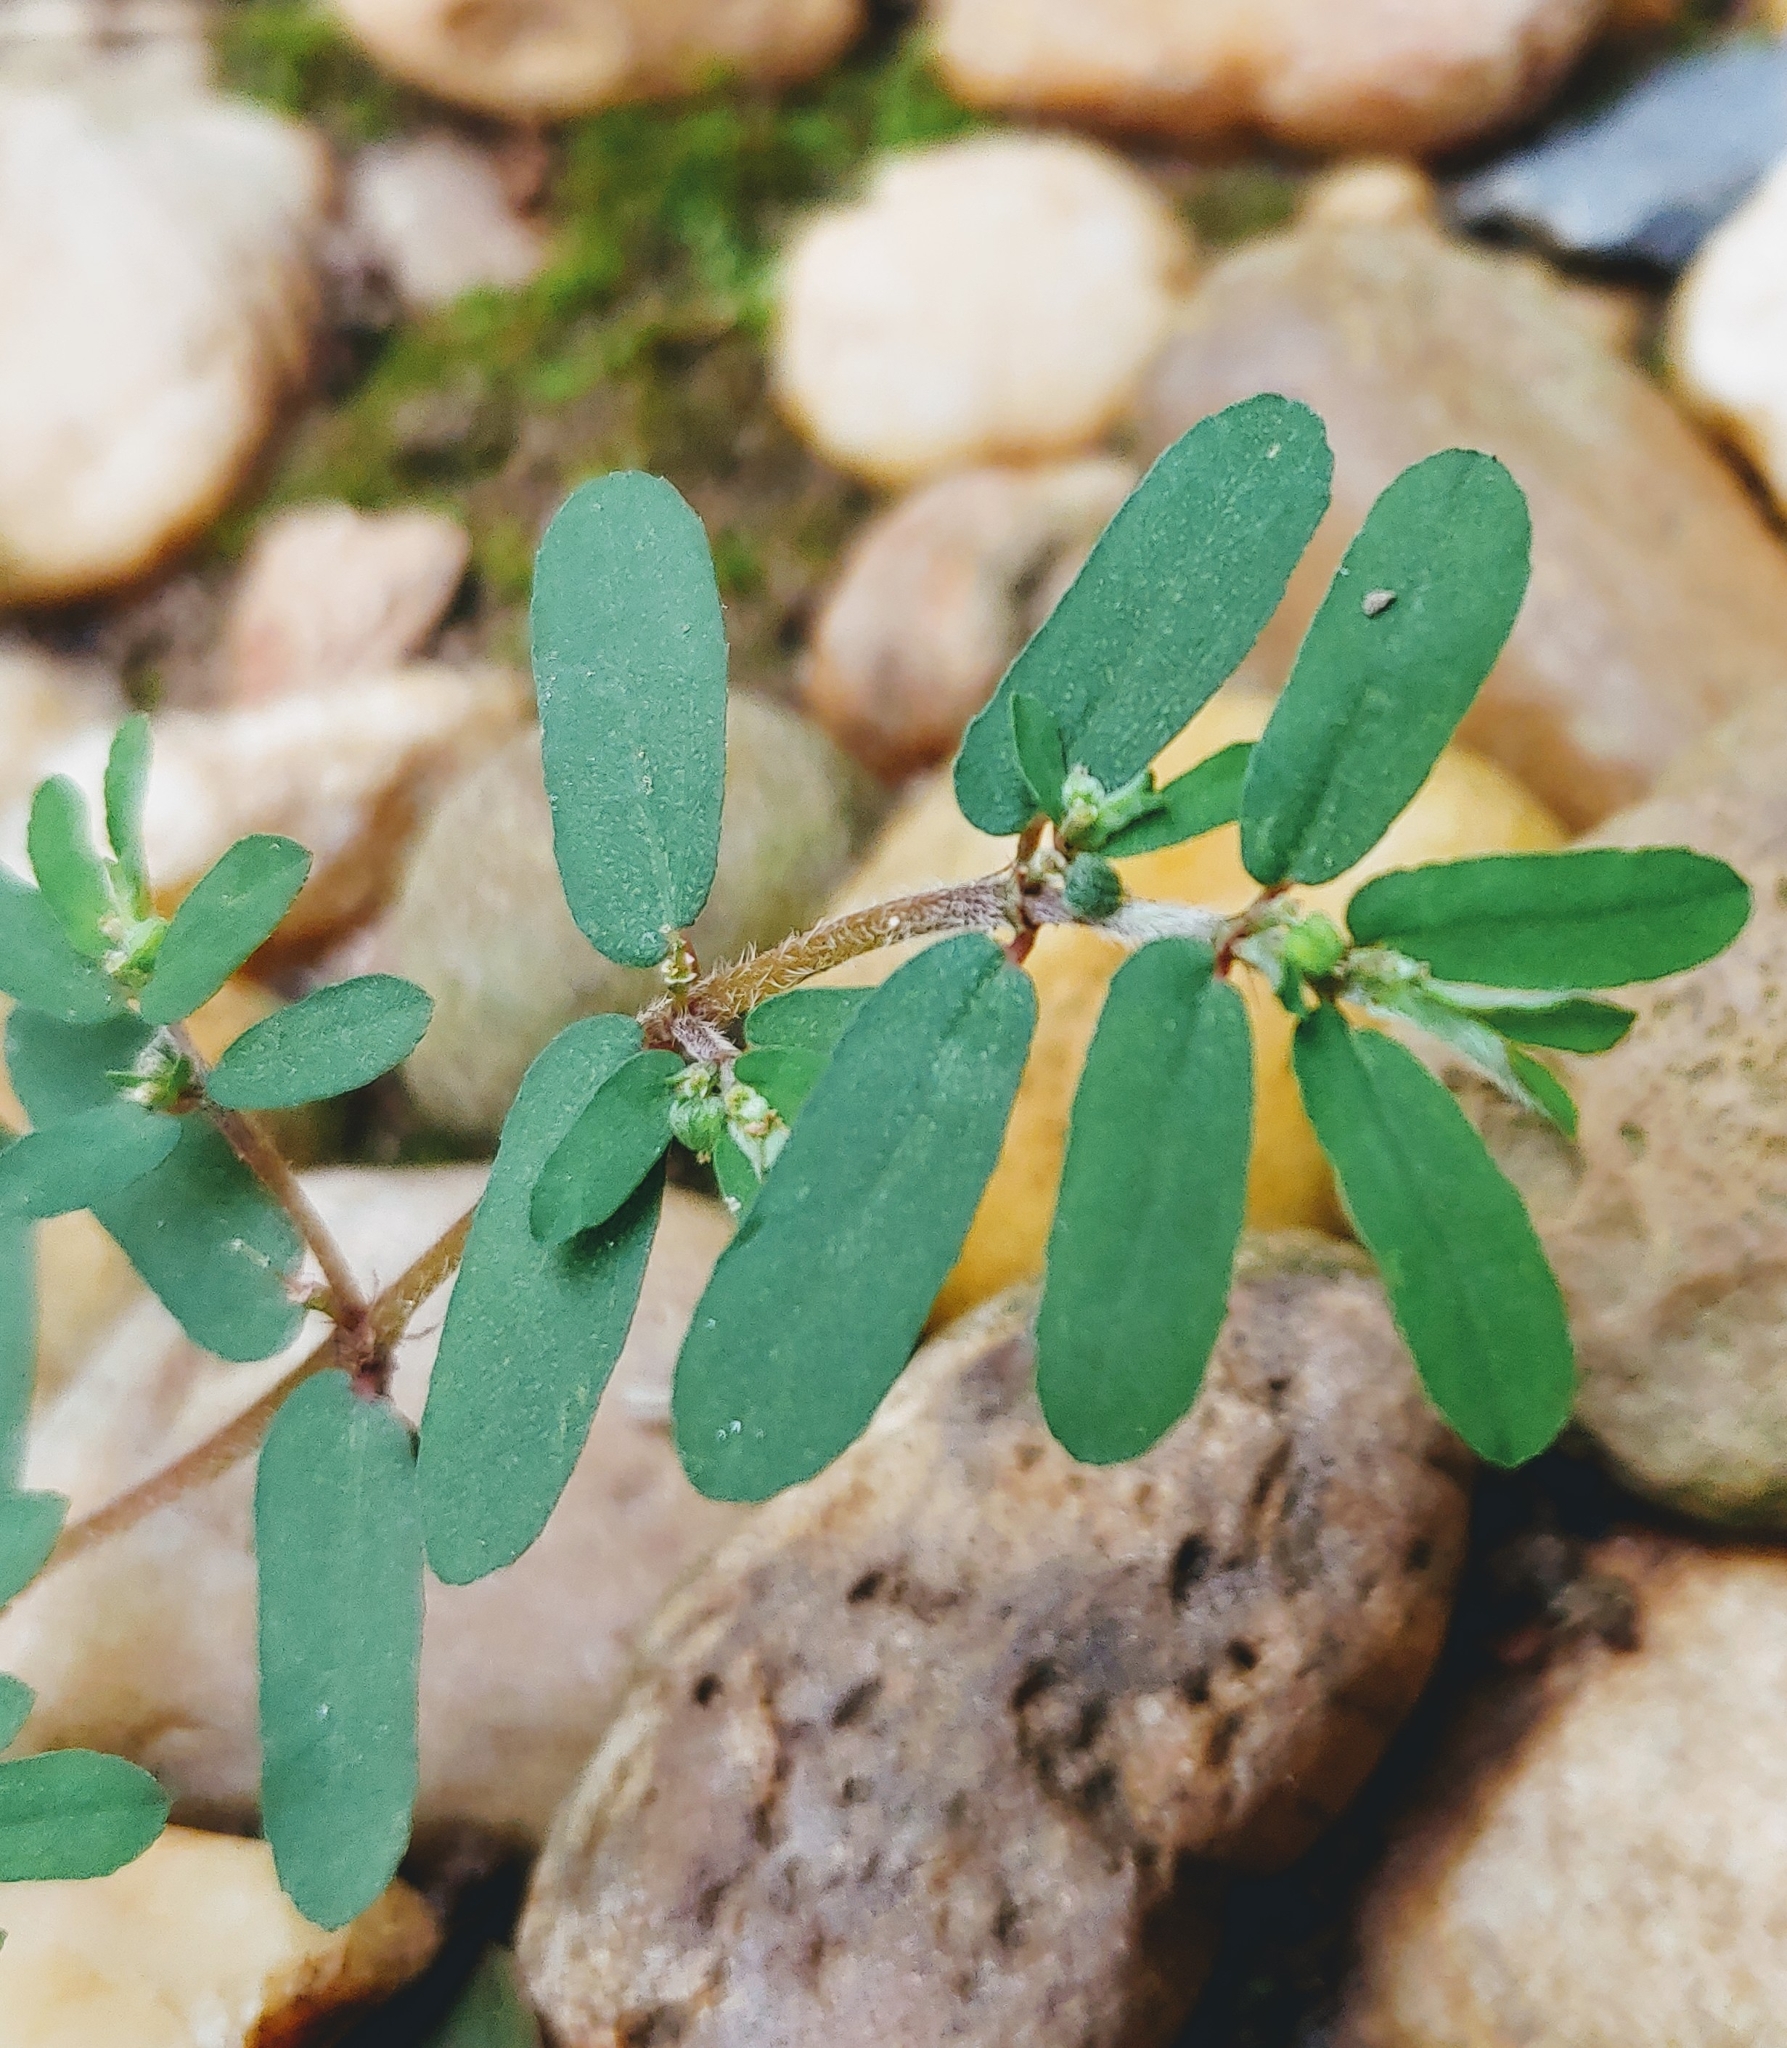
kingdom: Plantae
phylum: Tracheophyta
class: Magnoliopsida
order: Malpighiales
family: Euphorbiaceae
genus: Euphorbia
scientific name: Euphorbia maculata
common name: Spotted spurge
